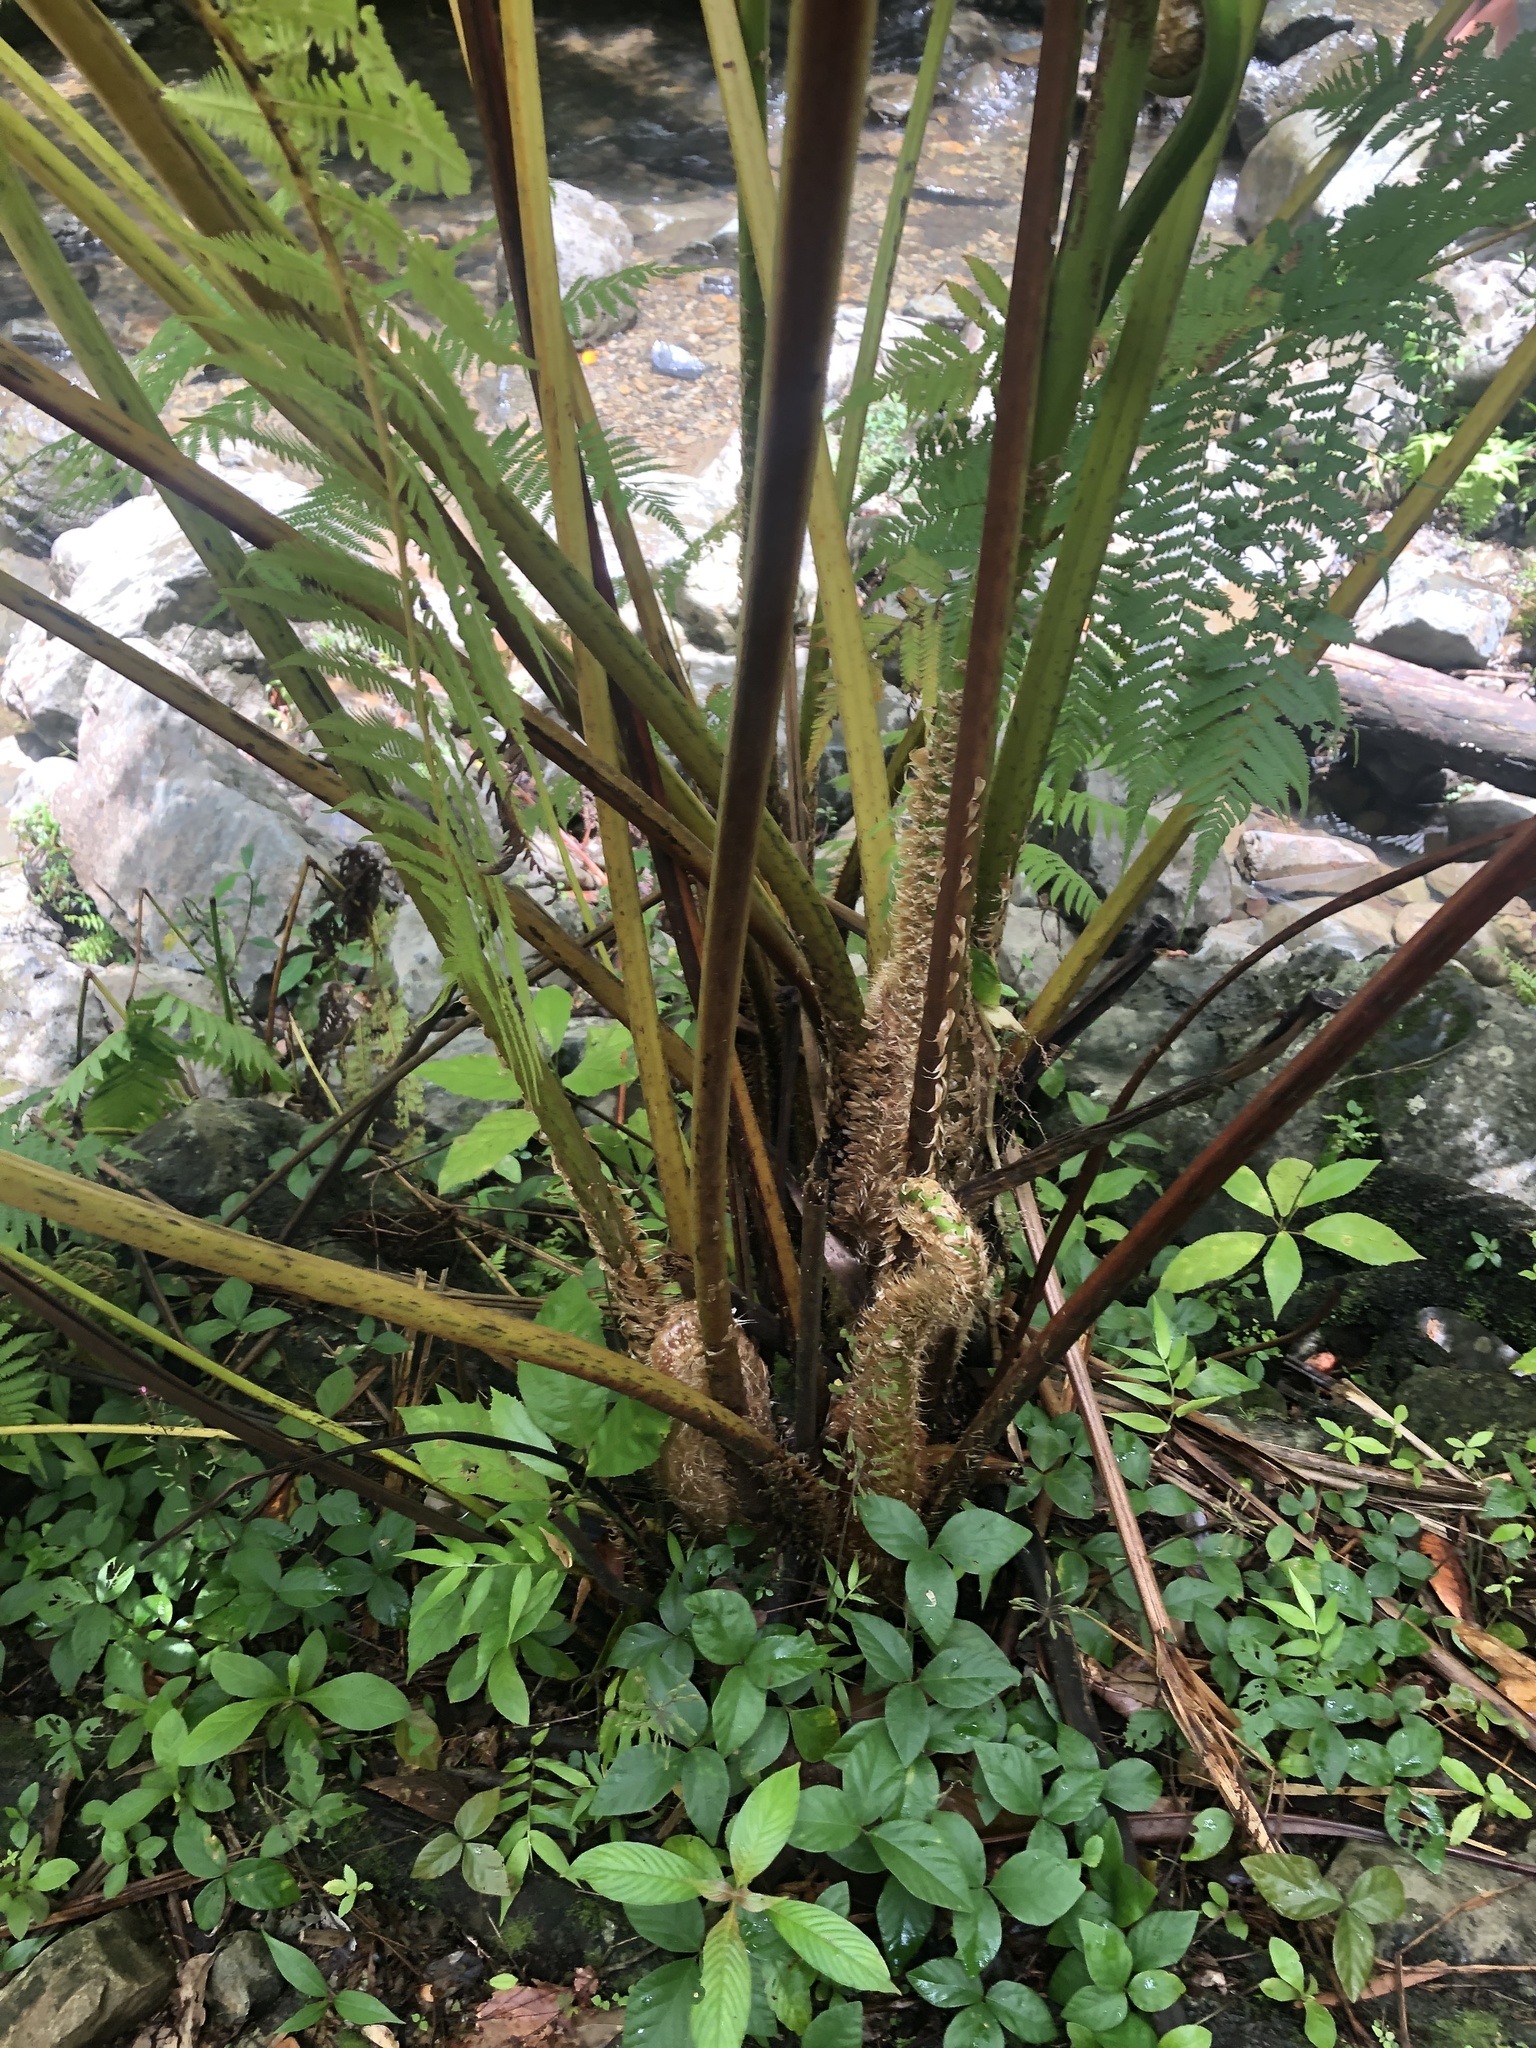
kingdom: Plantae
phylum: Tracheophyta
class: Polypodiopsida
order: Cyatheales
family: Cyatheaceae
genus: Cyathea
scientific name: Cyathea arborea
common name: West indian treefern
